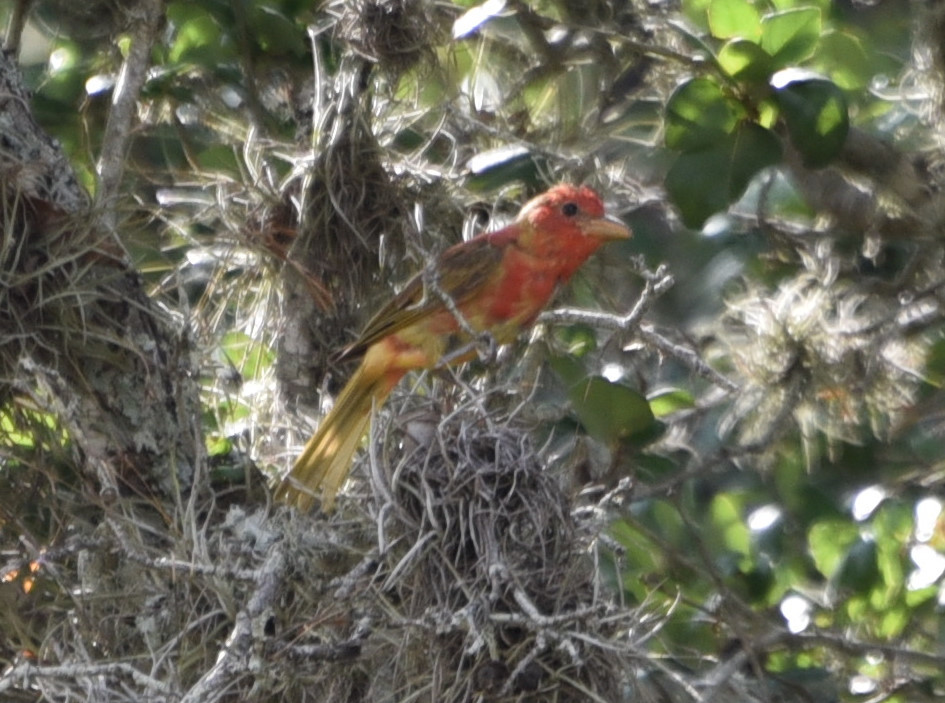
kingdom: Animalia
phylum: Chordata
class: Aves
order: Passeriformes
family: Cardinalidae
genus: Piranga
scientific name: Piranga rubra
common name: Summer tanager
